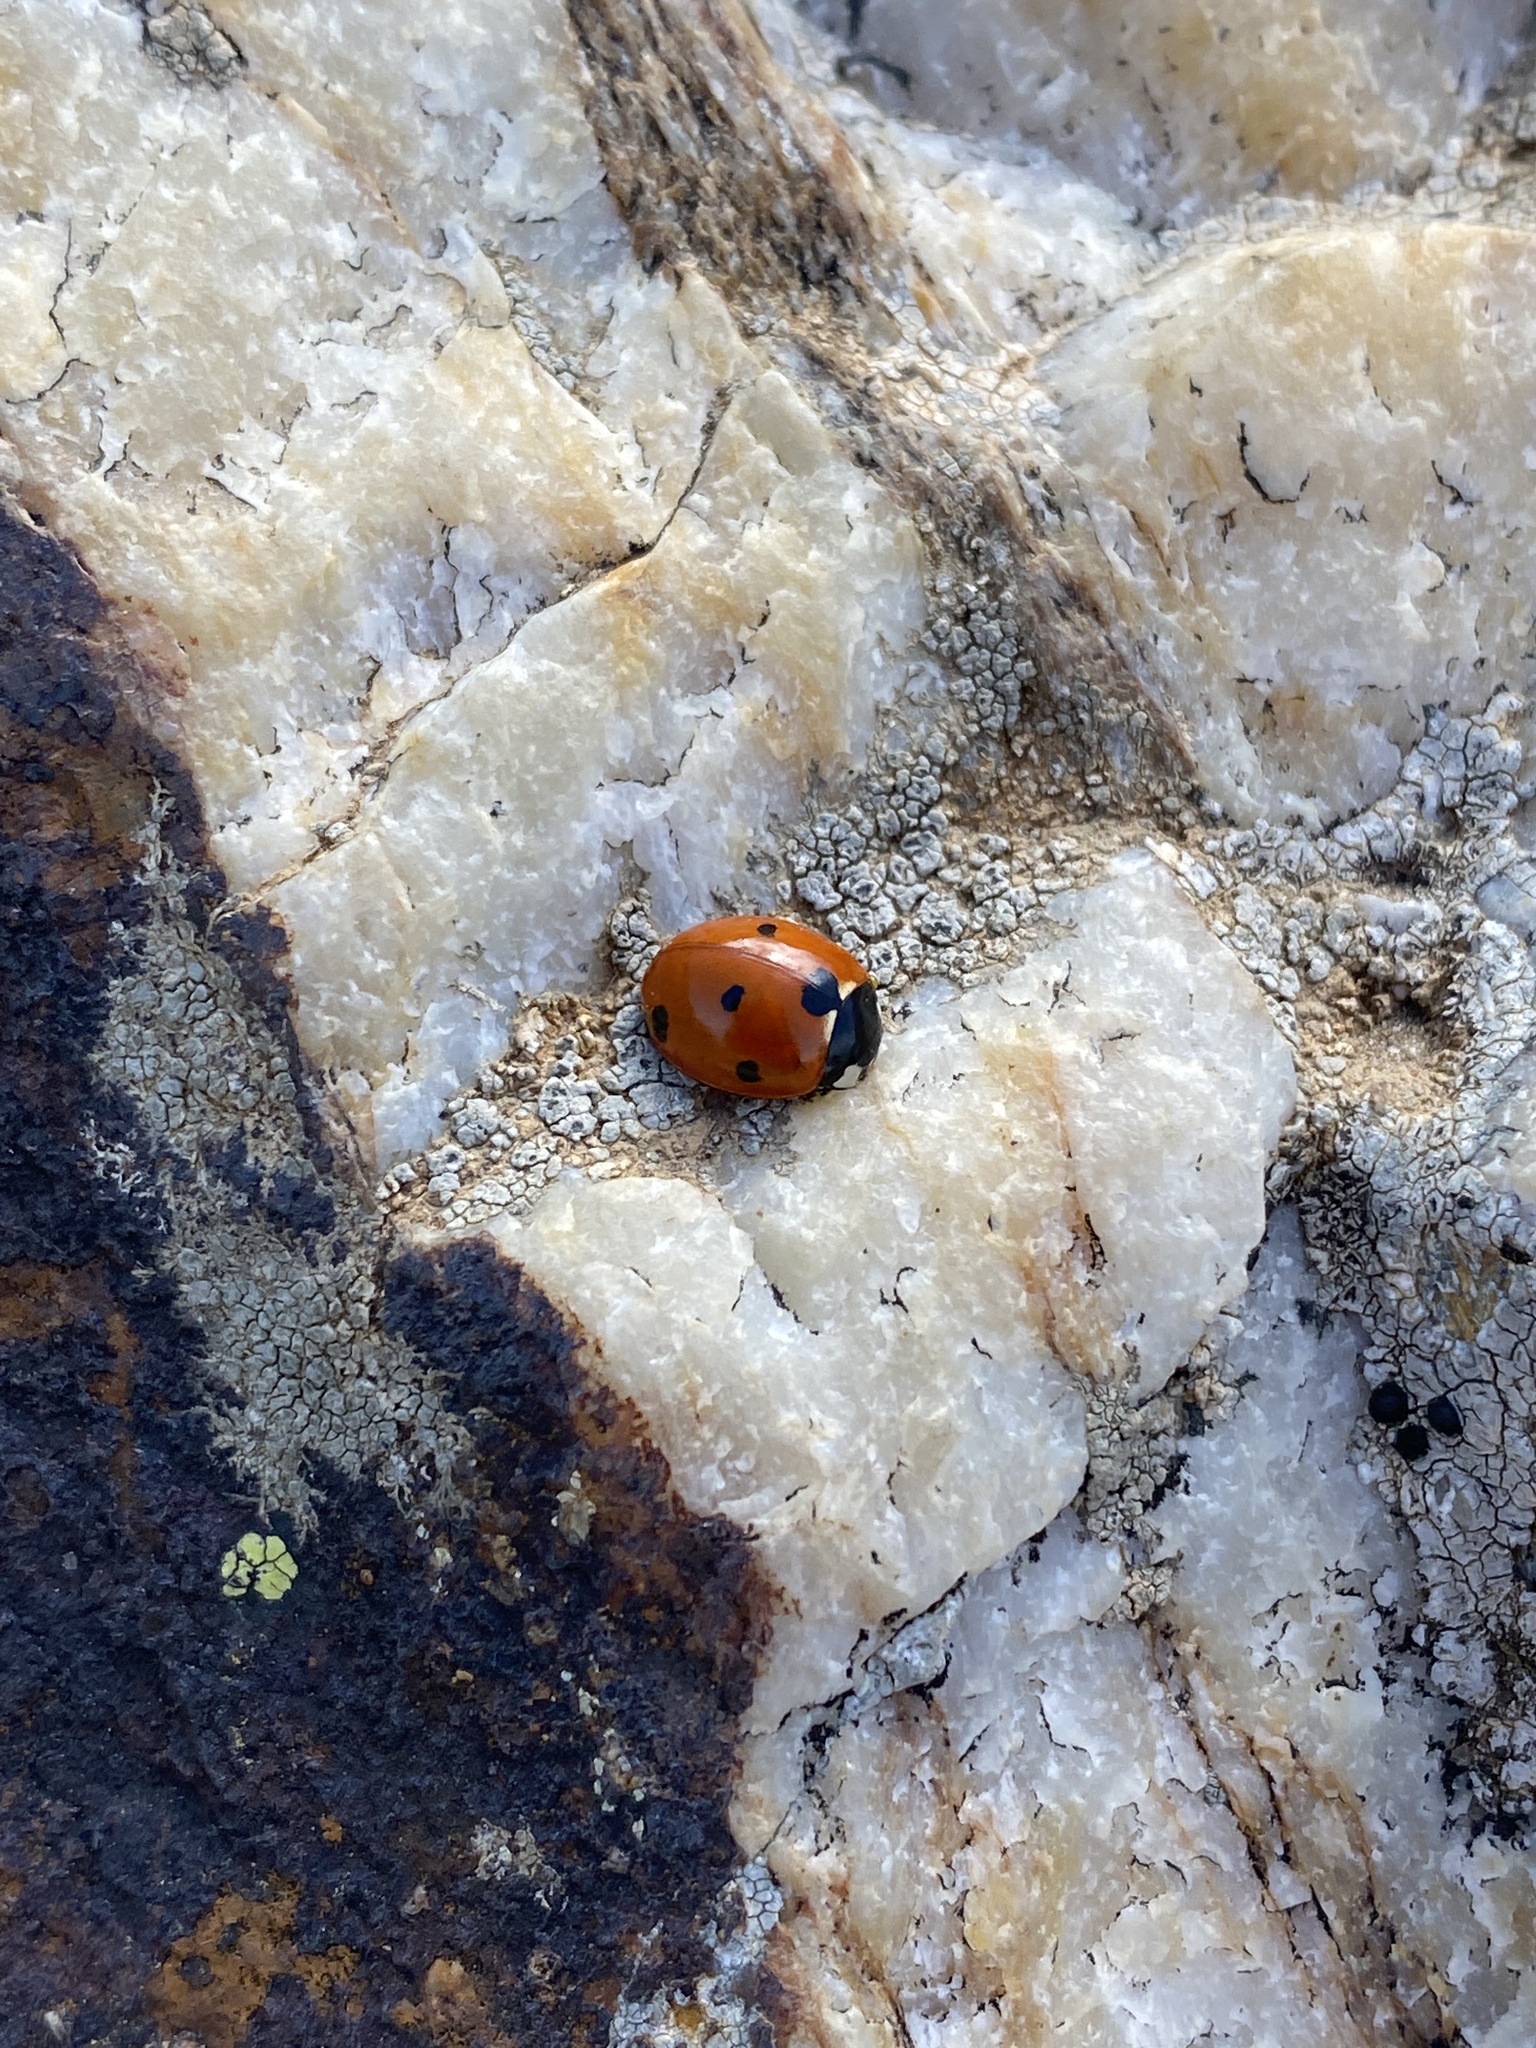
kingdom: Animalia
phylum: Arthropoda
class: Insecta
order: Coleoptera
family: Coccinellidae
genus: Coccinella
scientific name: Coccinella septempunctata
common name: Sevenspotted lady beetle
